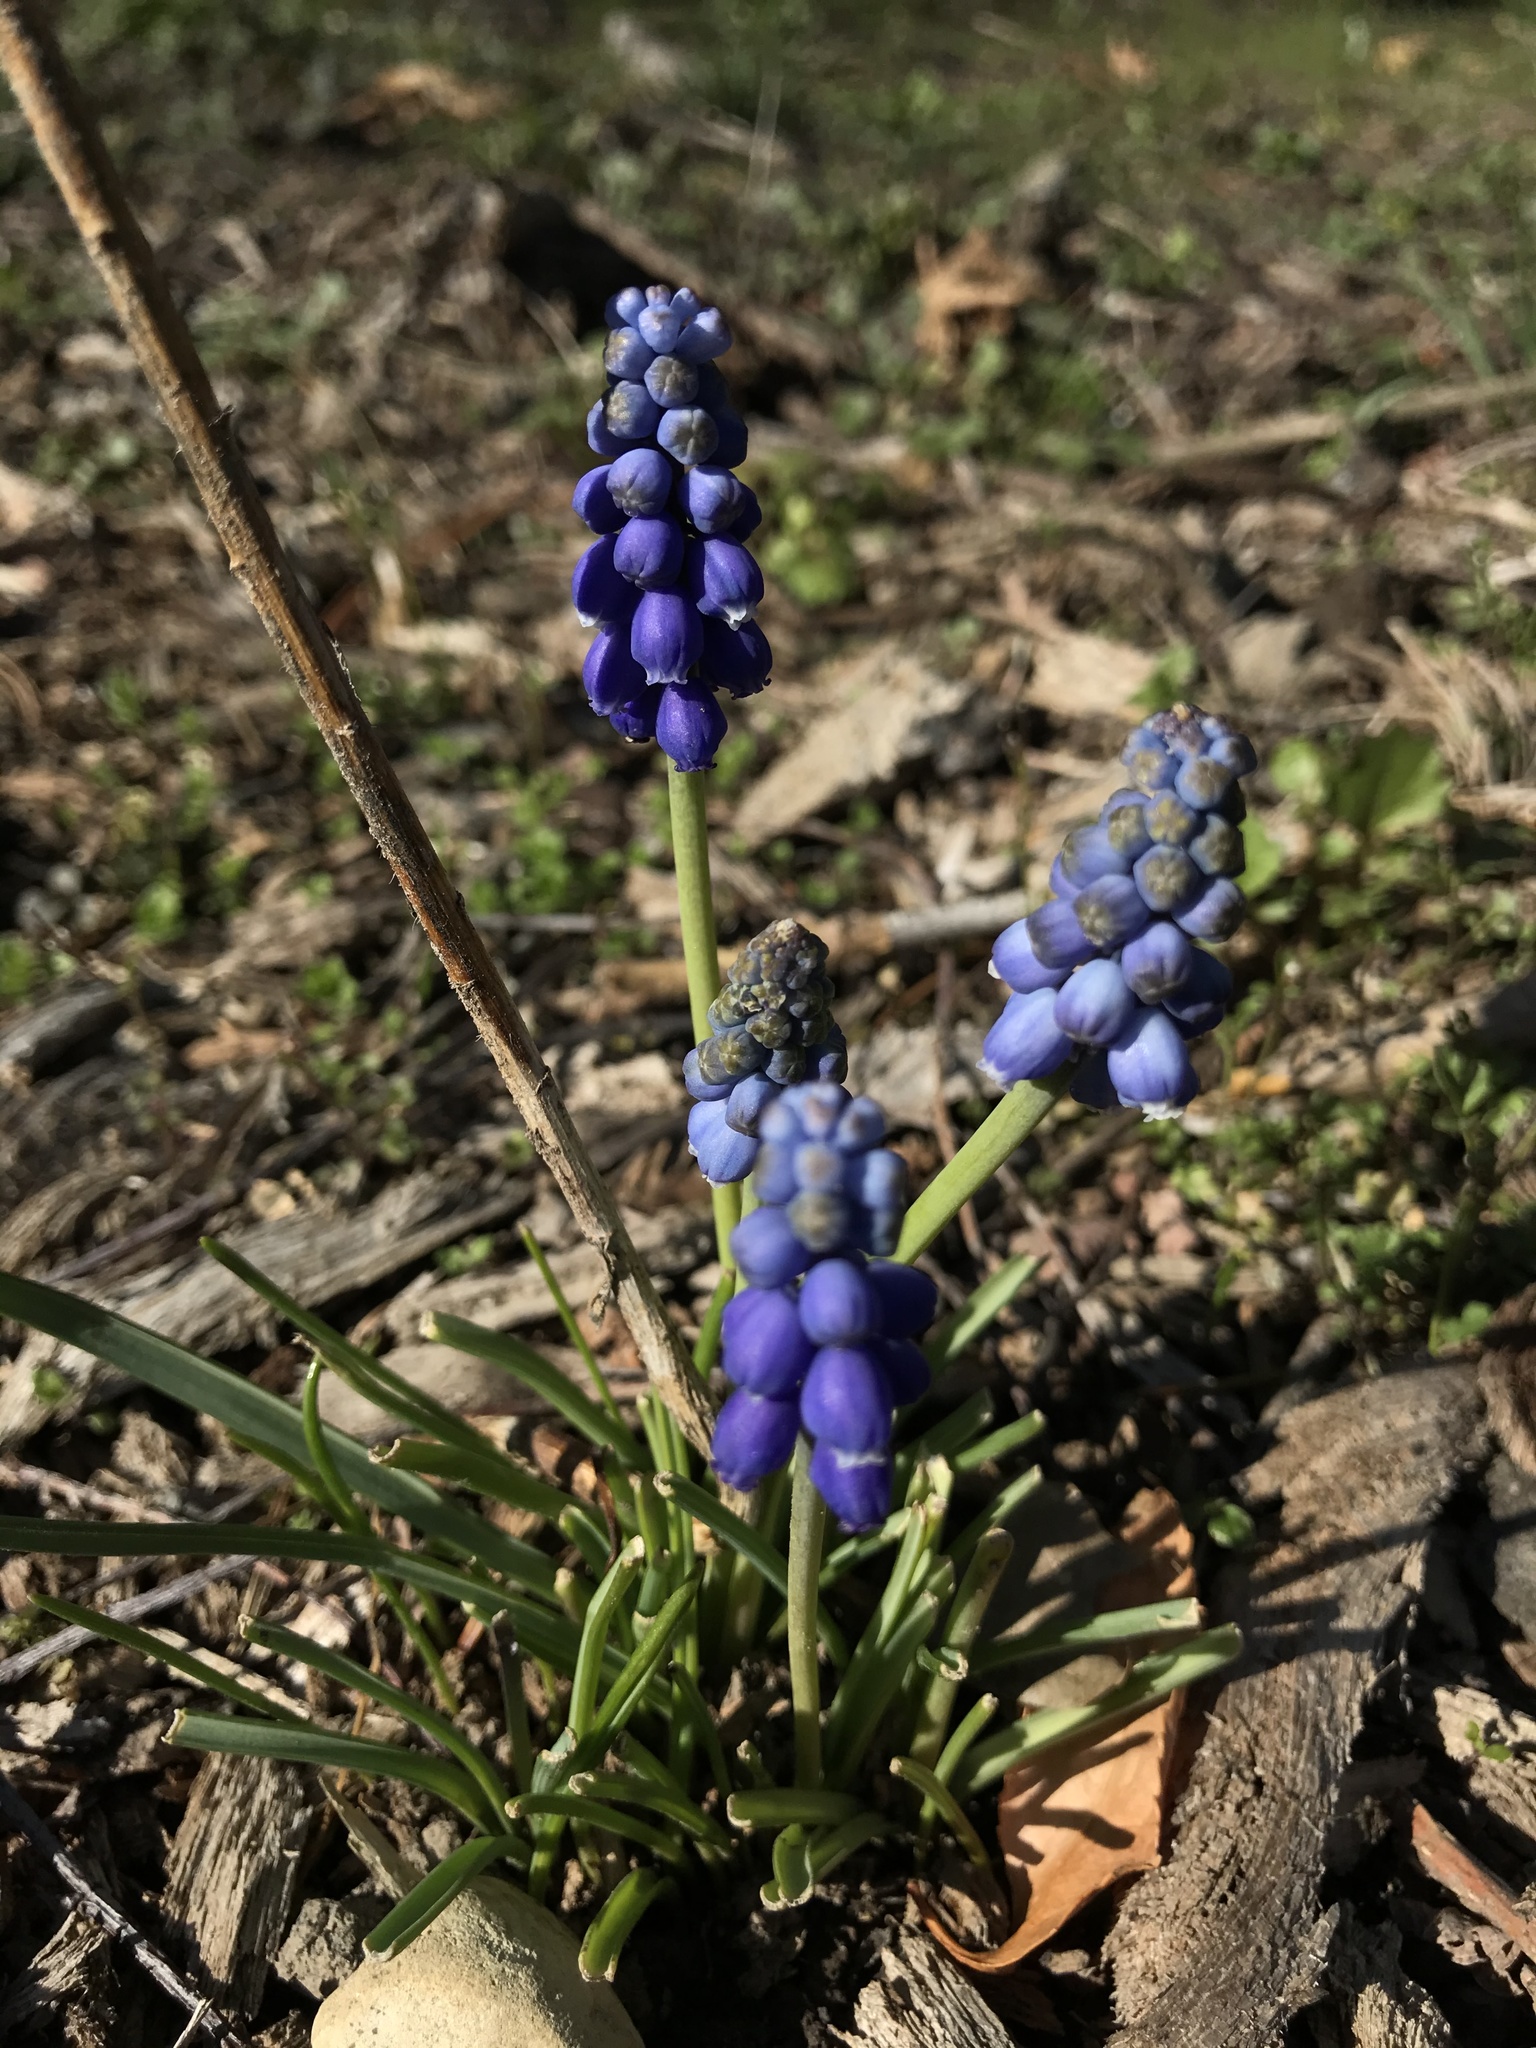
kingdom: Plantae
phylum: Tracheophyta
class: Liliopsida
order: Asparagales
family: Asparagaceae
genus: Muscari
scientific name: Muscari botryoides
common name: Compact grape-hyacinth
